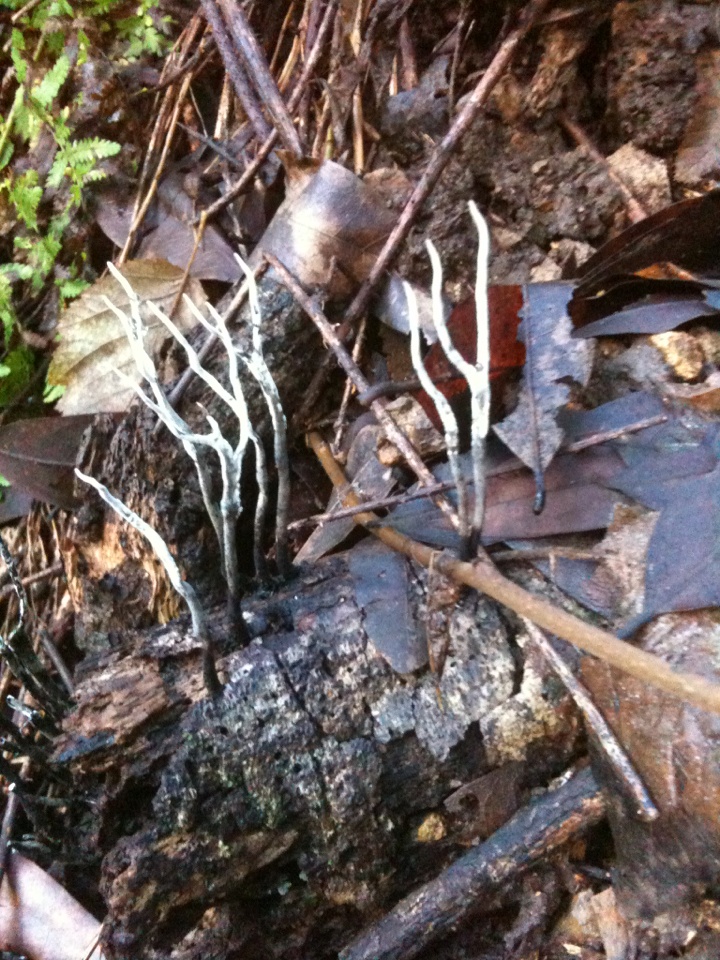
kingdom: Fungi
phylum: Ascomycota
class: Sordariomycetes
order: Xylariales
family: Xylariaceae
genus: Xylaria
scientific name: Xylaria hypoxylon
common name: Candle-snuff fungus
